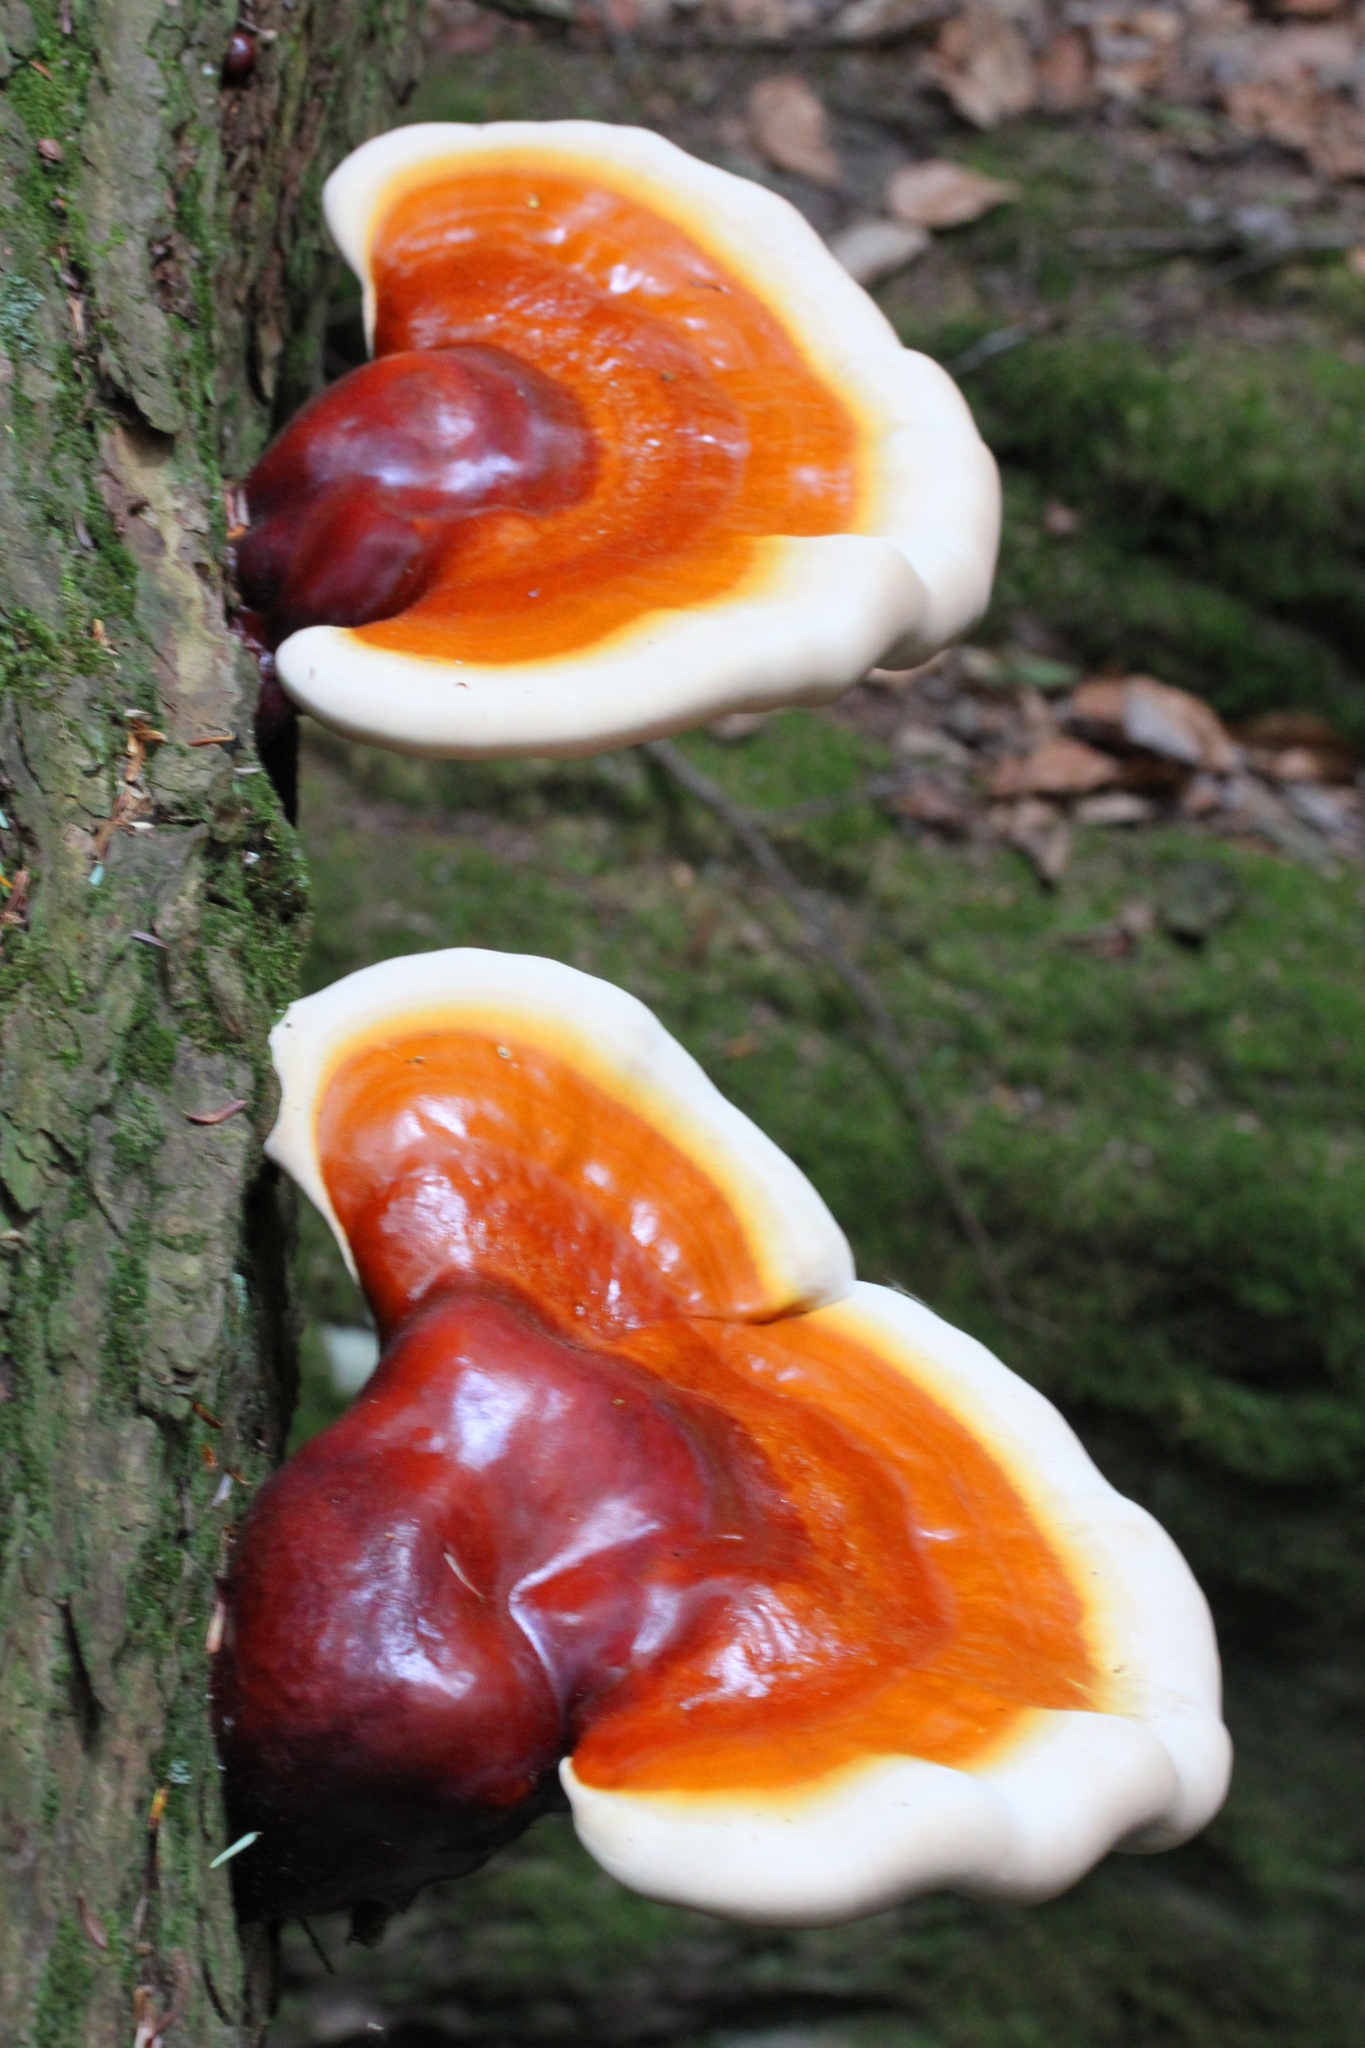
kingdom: Fungi
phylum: Basidiomycota
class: Agaricomycetes
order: Polyporales
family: Polyporaceae
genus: Ganoderma
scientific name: Ganoderma tsugae
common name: Hemlock varnish shelf
